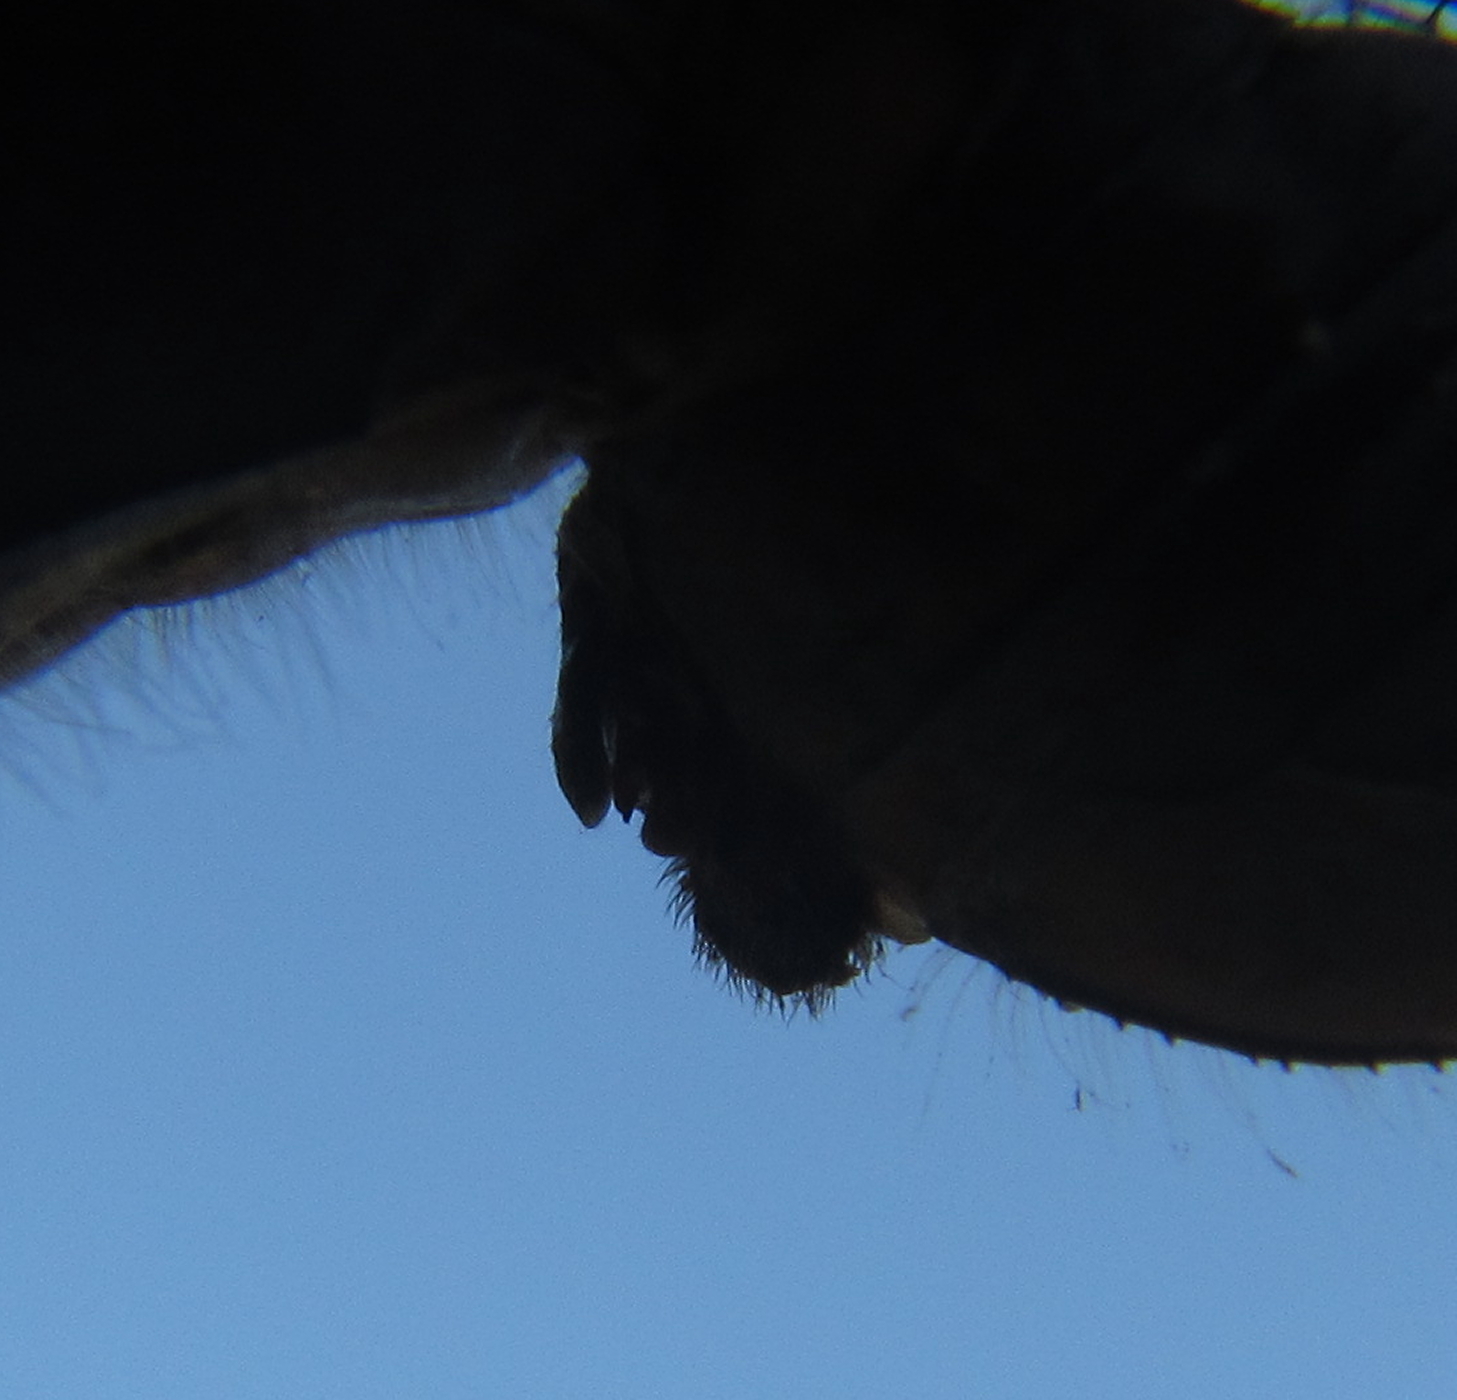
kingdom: Animalia
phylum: Arthropoda
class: Insecta
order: Odonata
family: Libellulidae
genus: Orthetrum
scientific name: Orthetrum stemmale
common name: Bold skimmer
